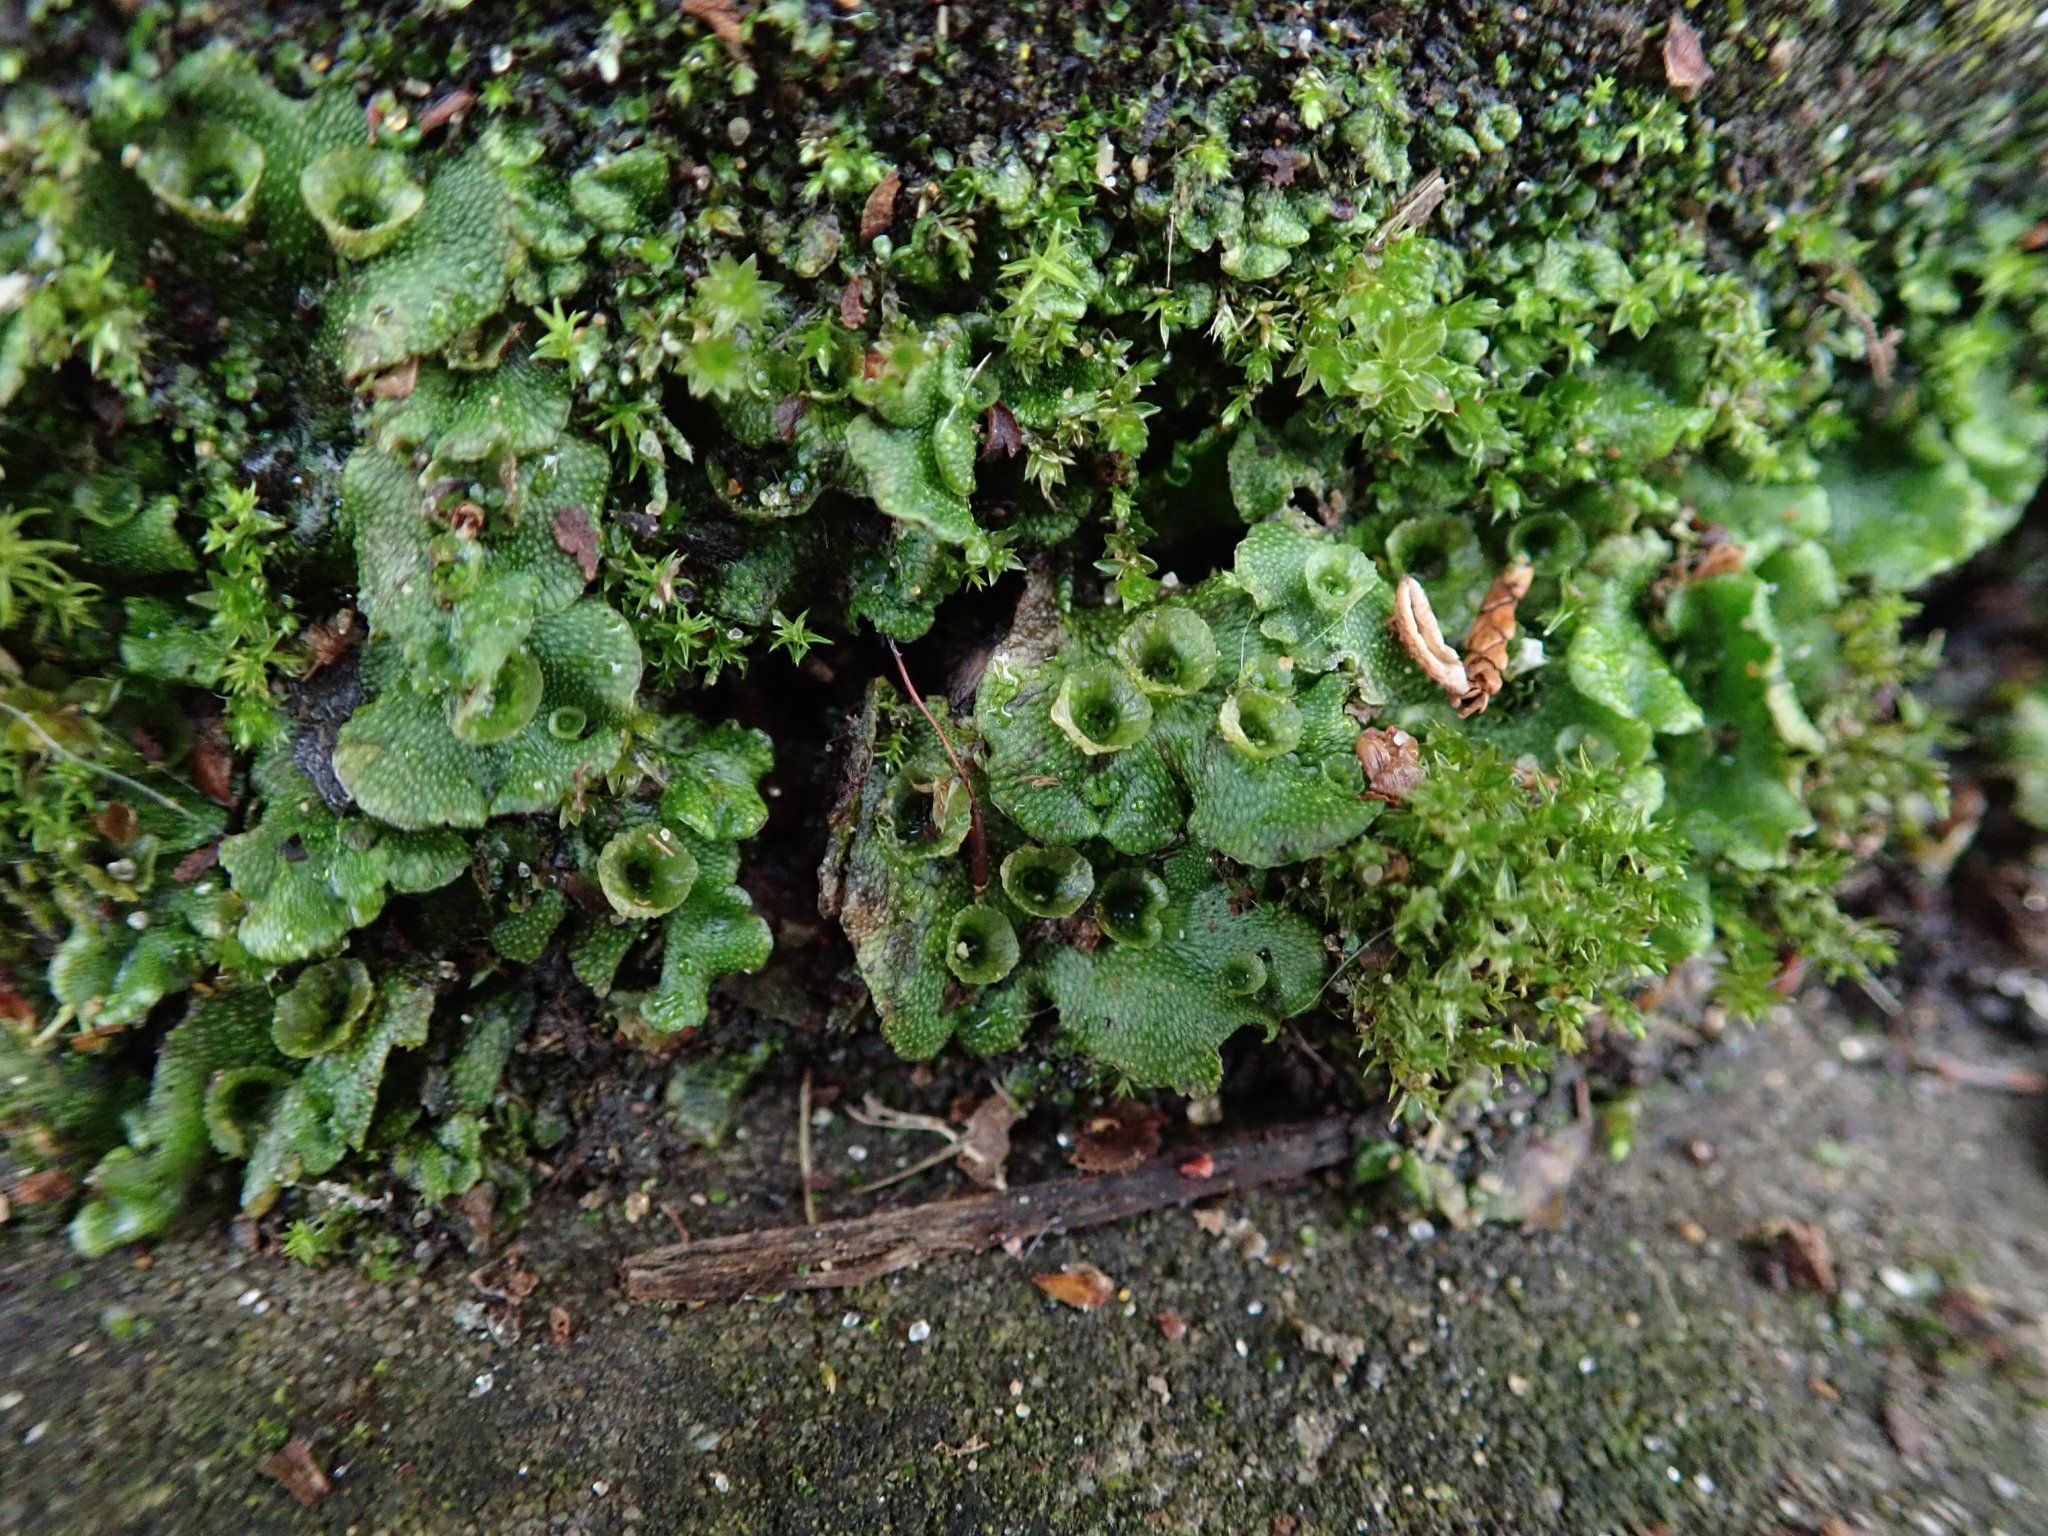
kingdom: Plantae
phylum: Marchantiophyta
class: Marchantiopsida
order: Marchantiales
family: Marchantiaceae
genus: Marchantia
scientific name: Marchantia polymorpha
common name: Common liverwort
